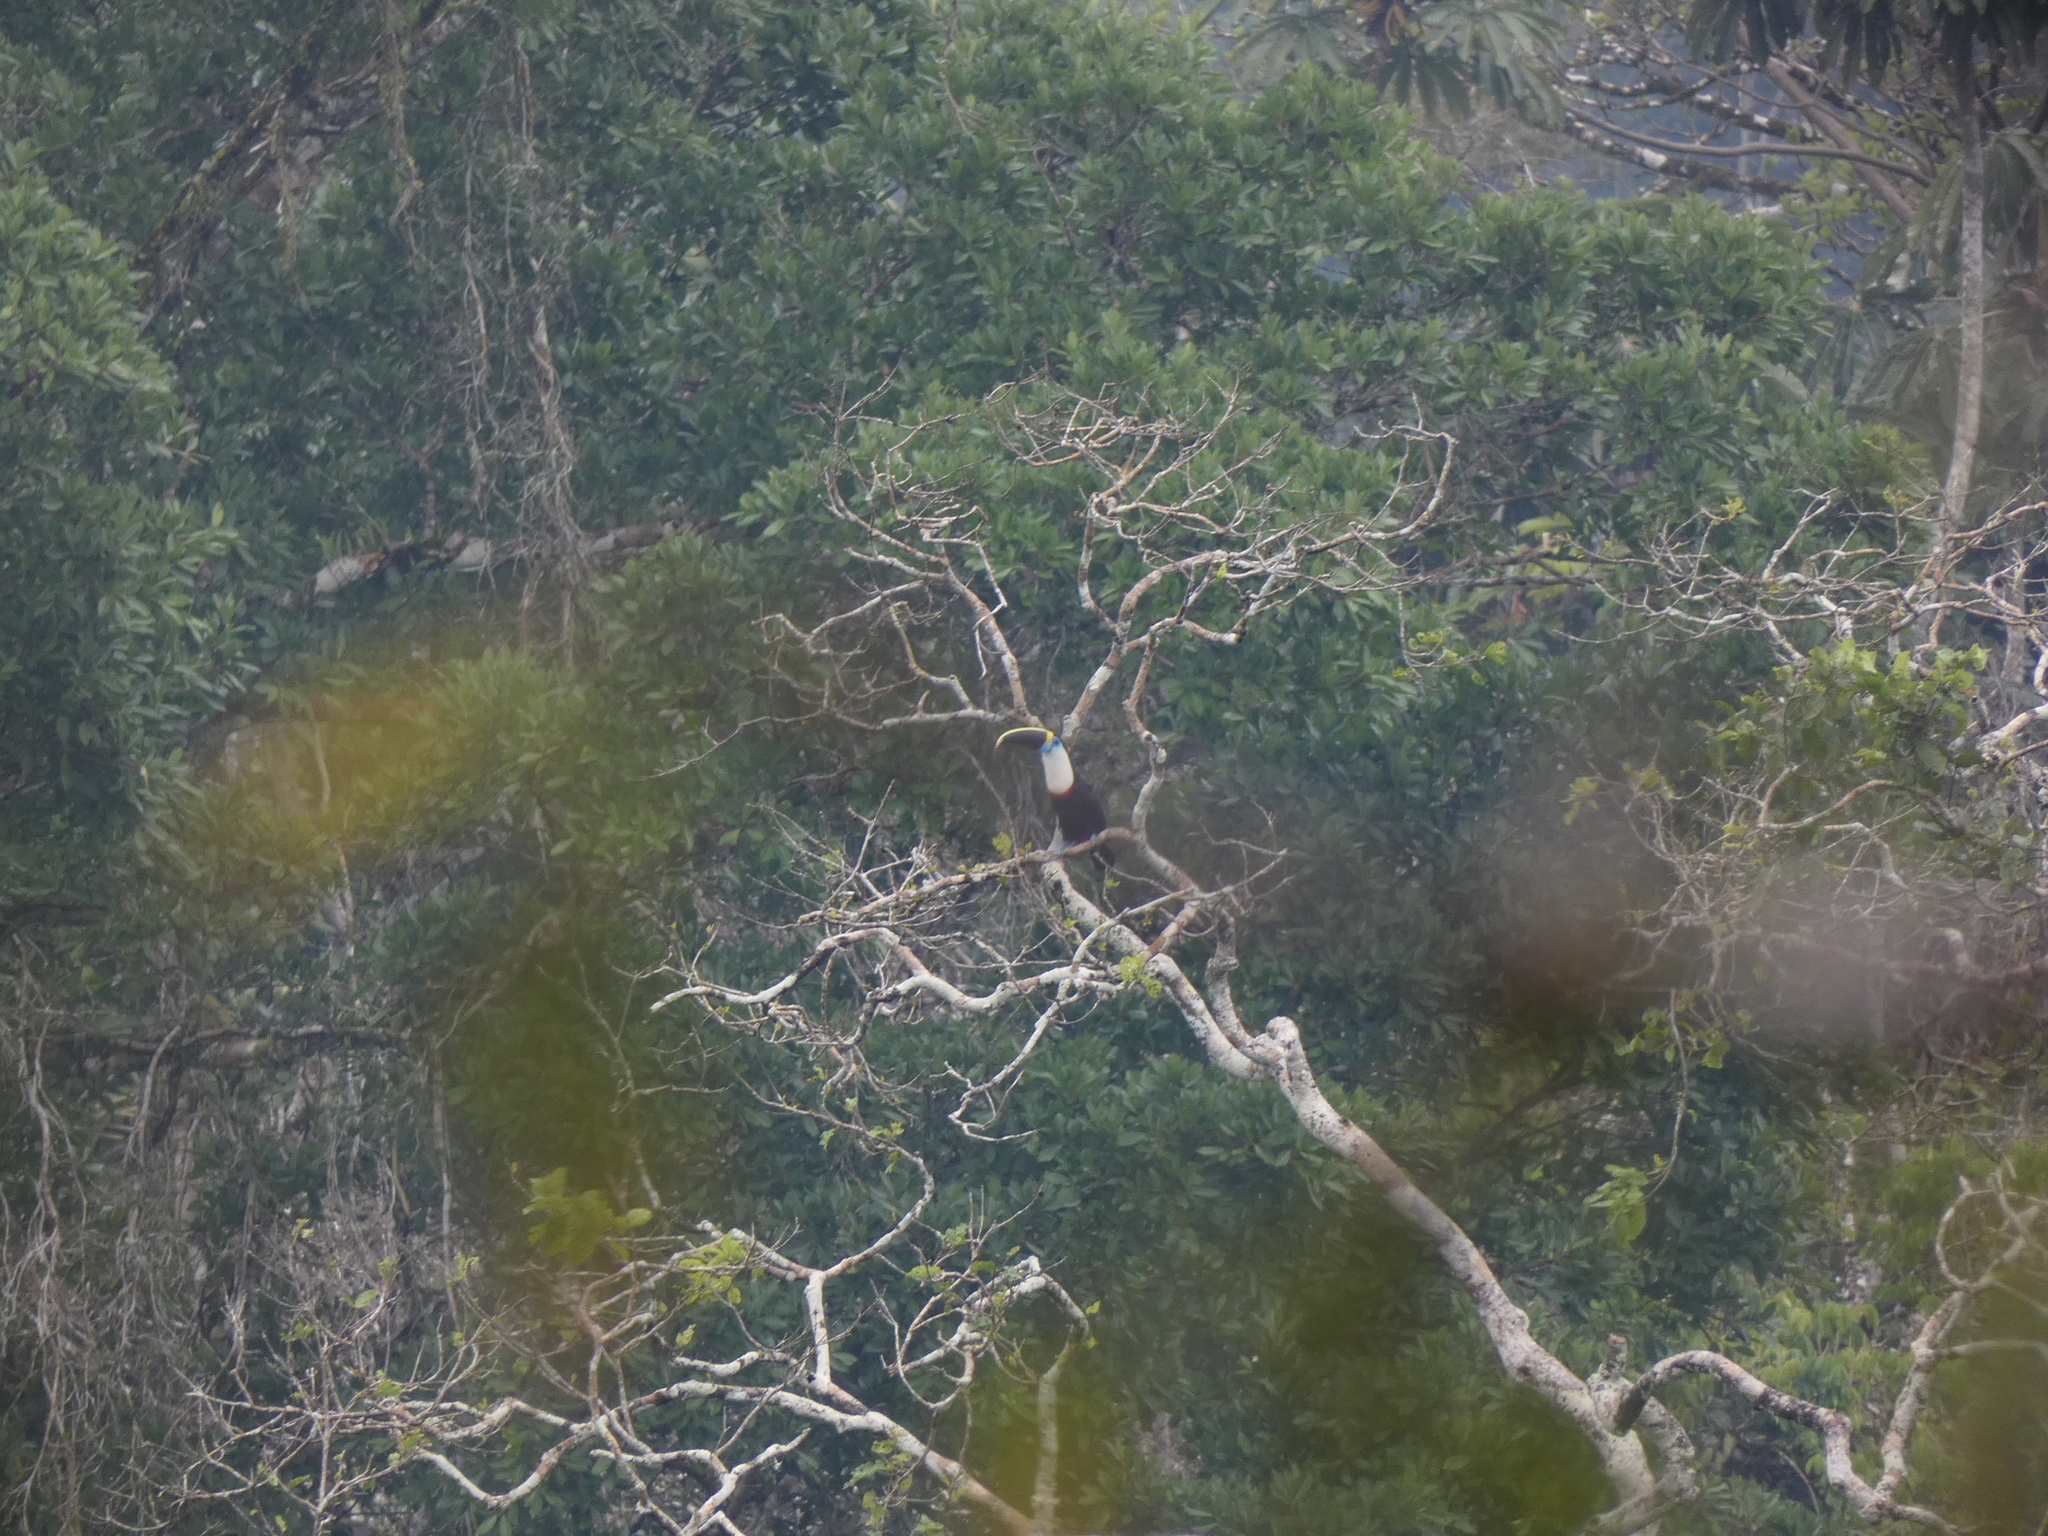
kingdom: Animalia
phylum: Chordata
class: Aves
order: Piciformes
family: Ramphastidae
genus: Ramphastos
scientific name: Ramphastos tucanus
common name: White-throated toucan
